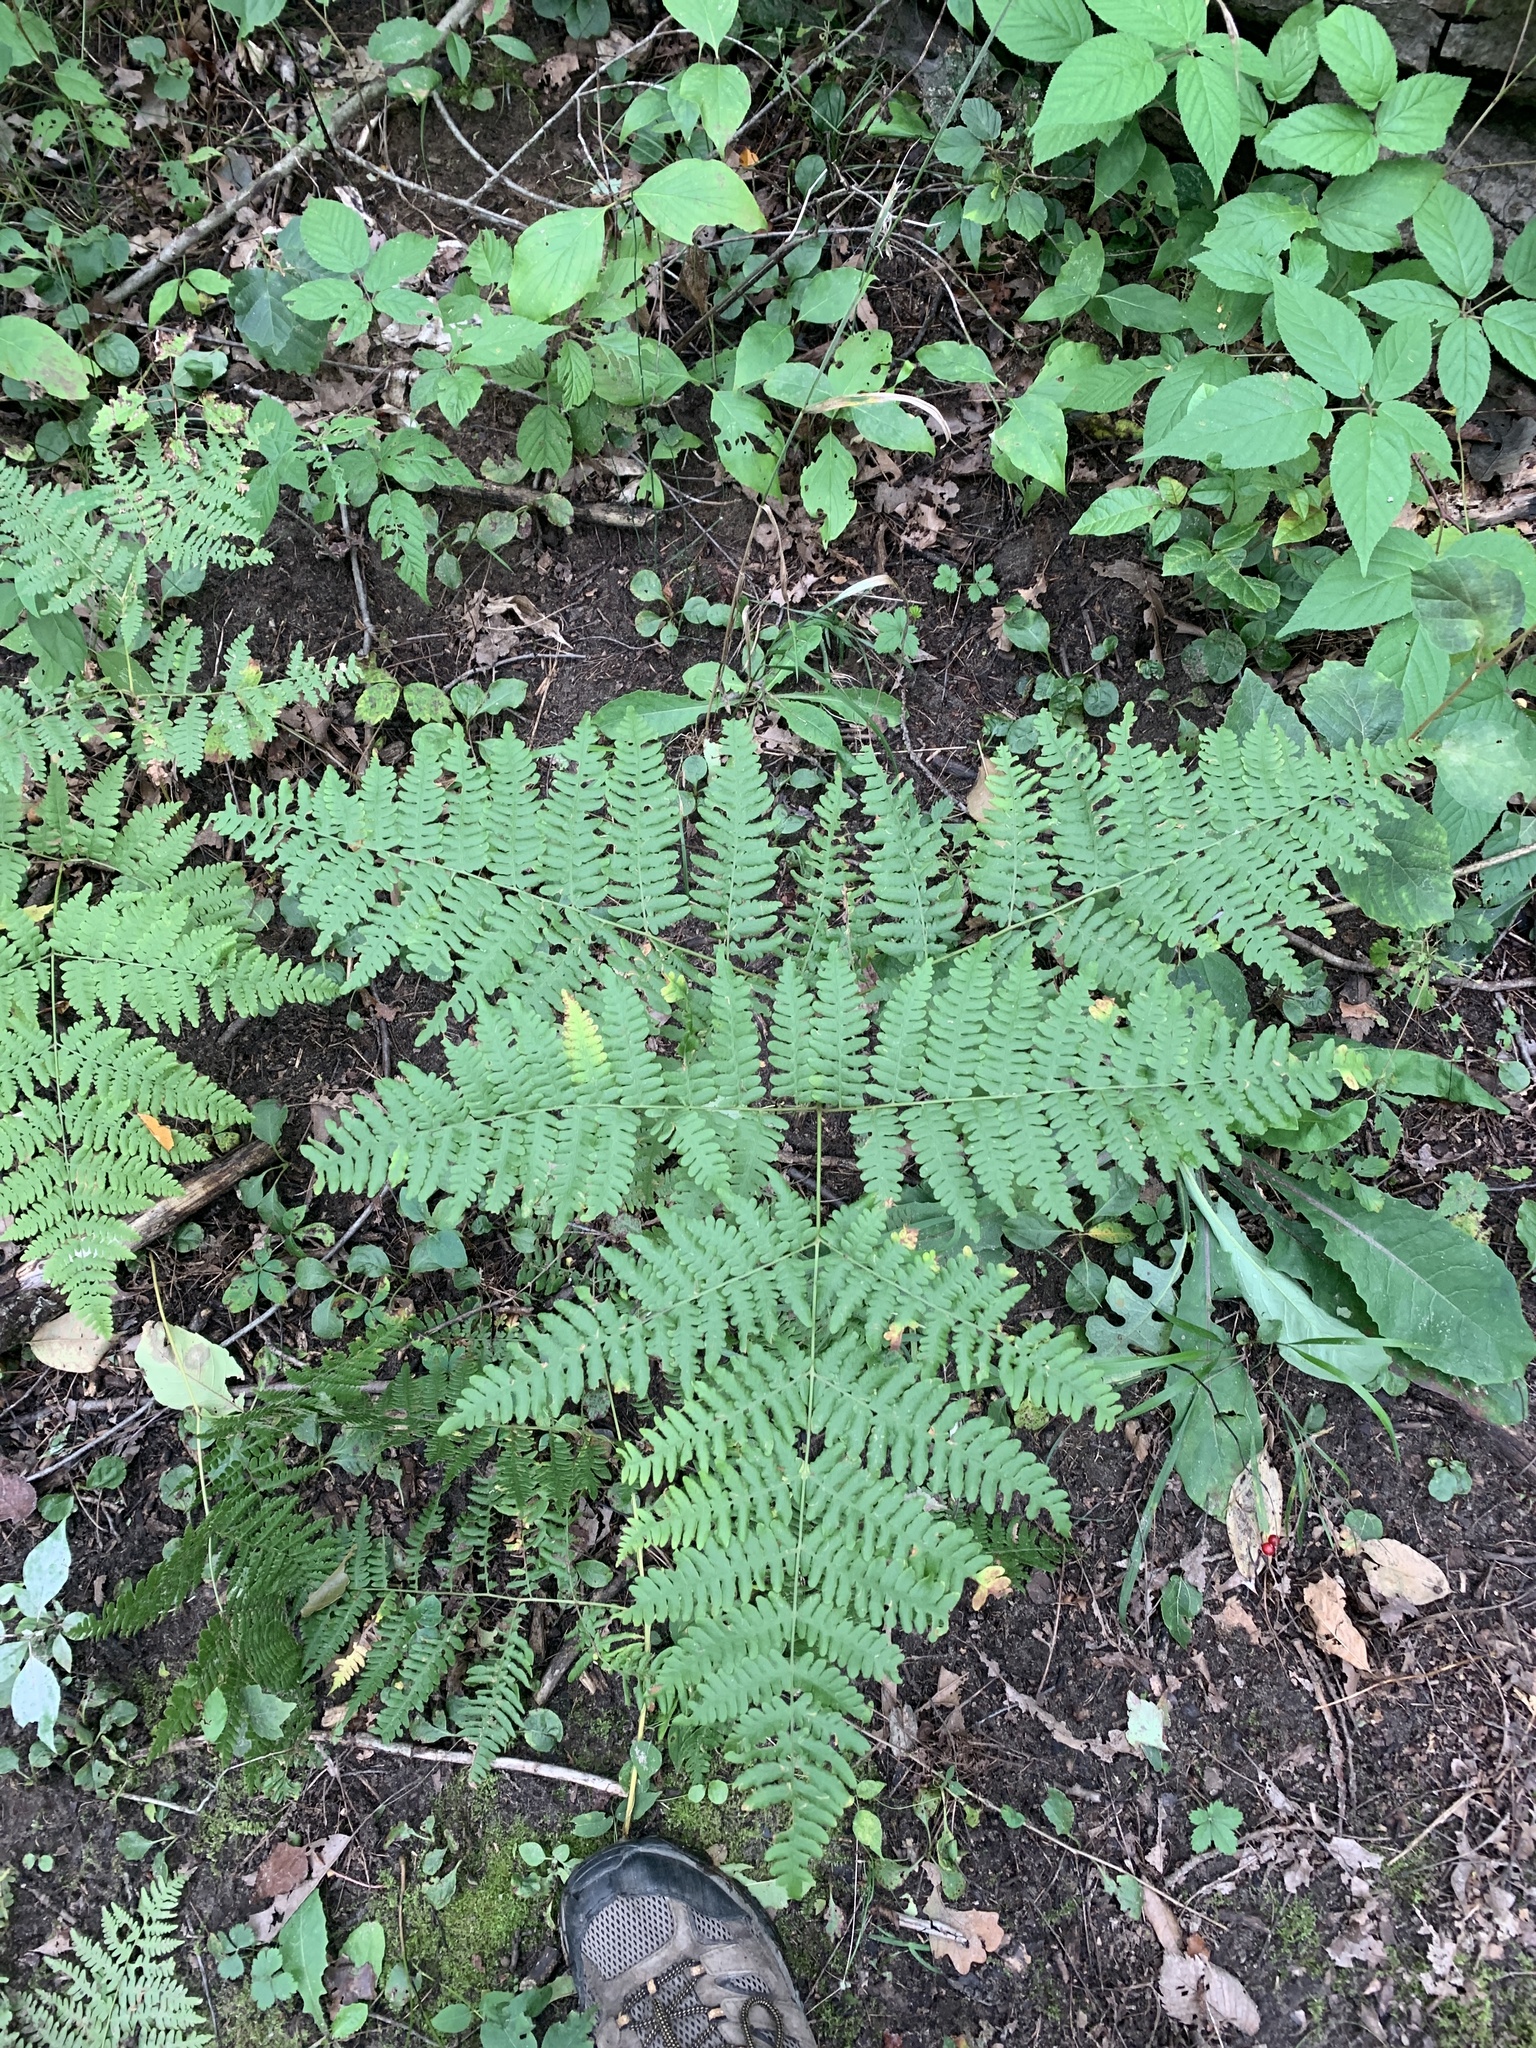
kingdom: Plantae
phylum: Tracheophyta
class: Polypodiopsida
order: Polypodiales
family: Dennstaedtiaceae
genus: Pteridium
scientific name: Pteridium aquilinum
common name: Bracken
